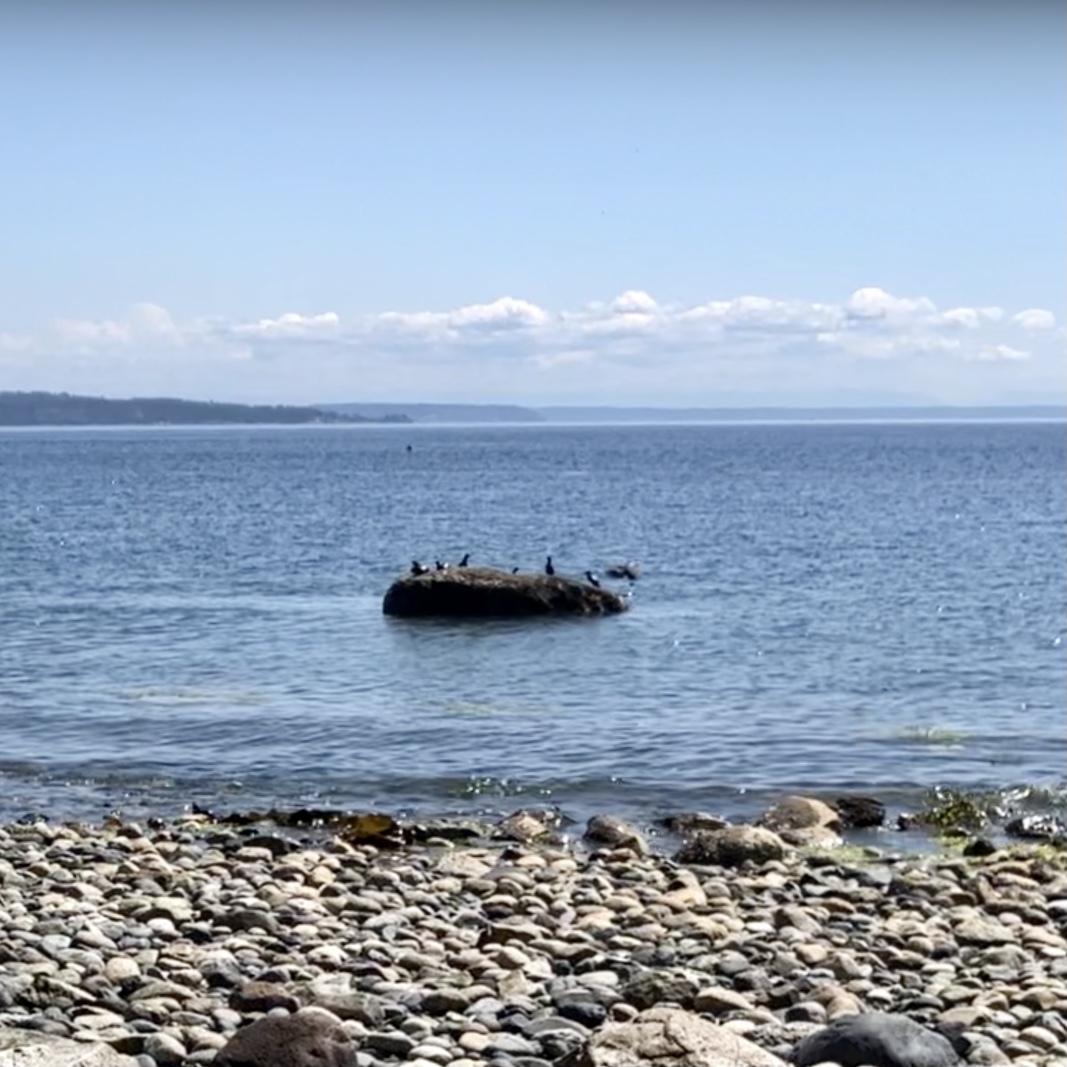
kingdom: Animalia
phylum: Chordata
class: Aves
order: Charadriiformes
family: Alcidae
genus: Cepphus
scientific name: Cepphus columba
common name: Pigeon guillemot
